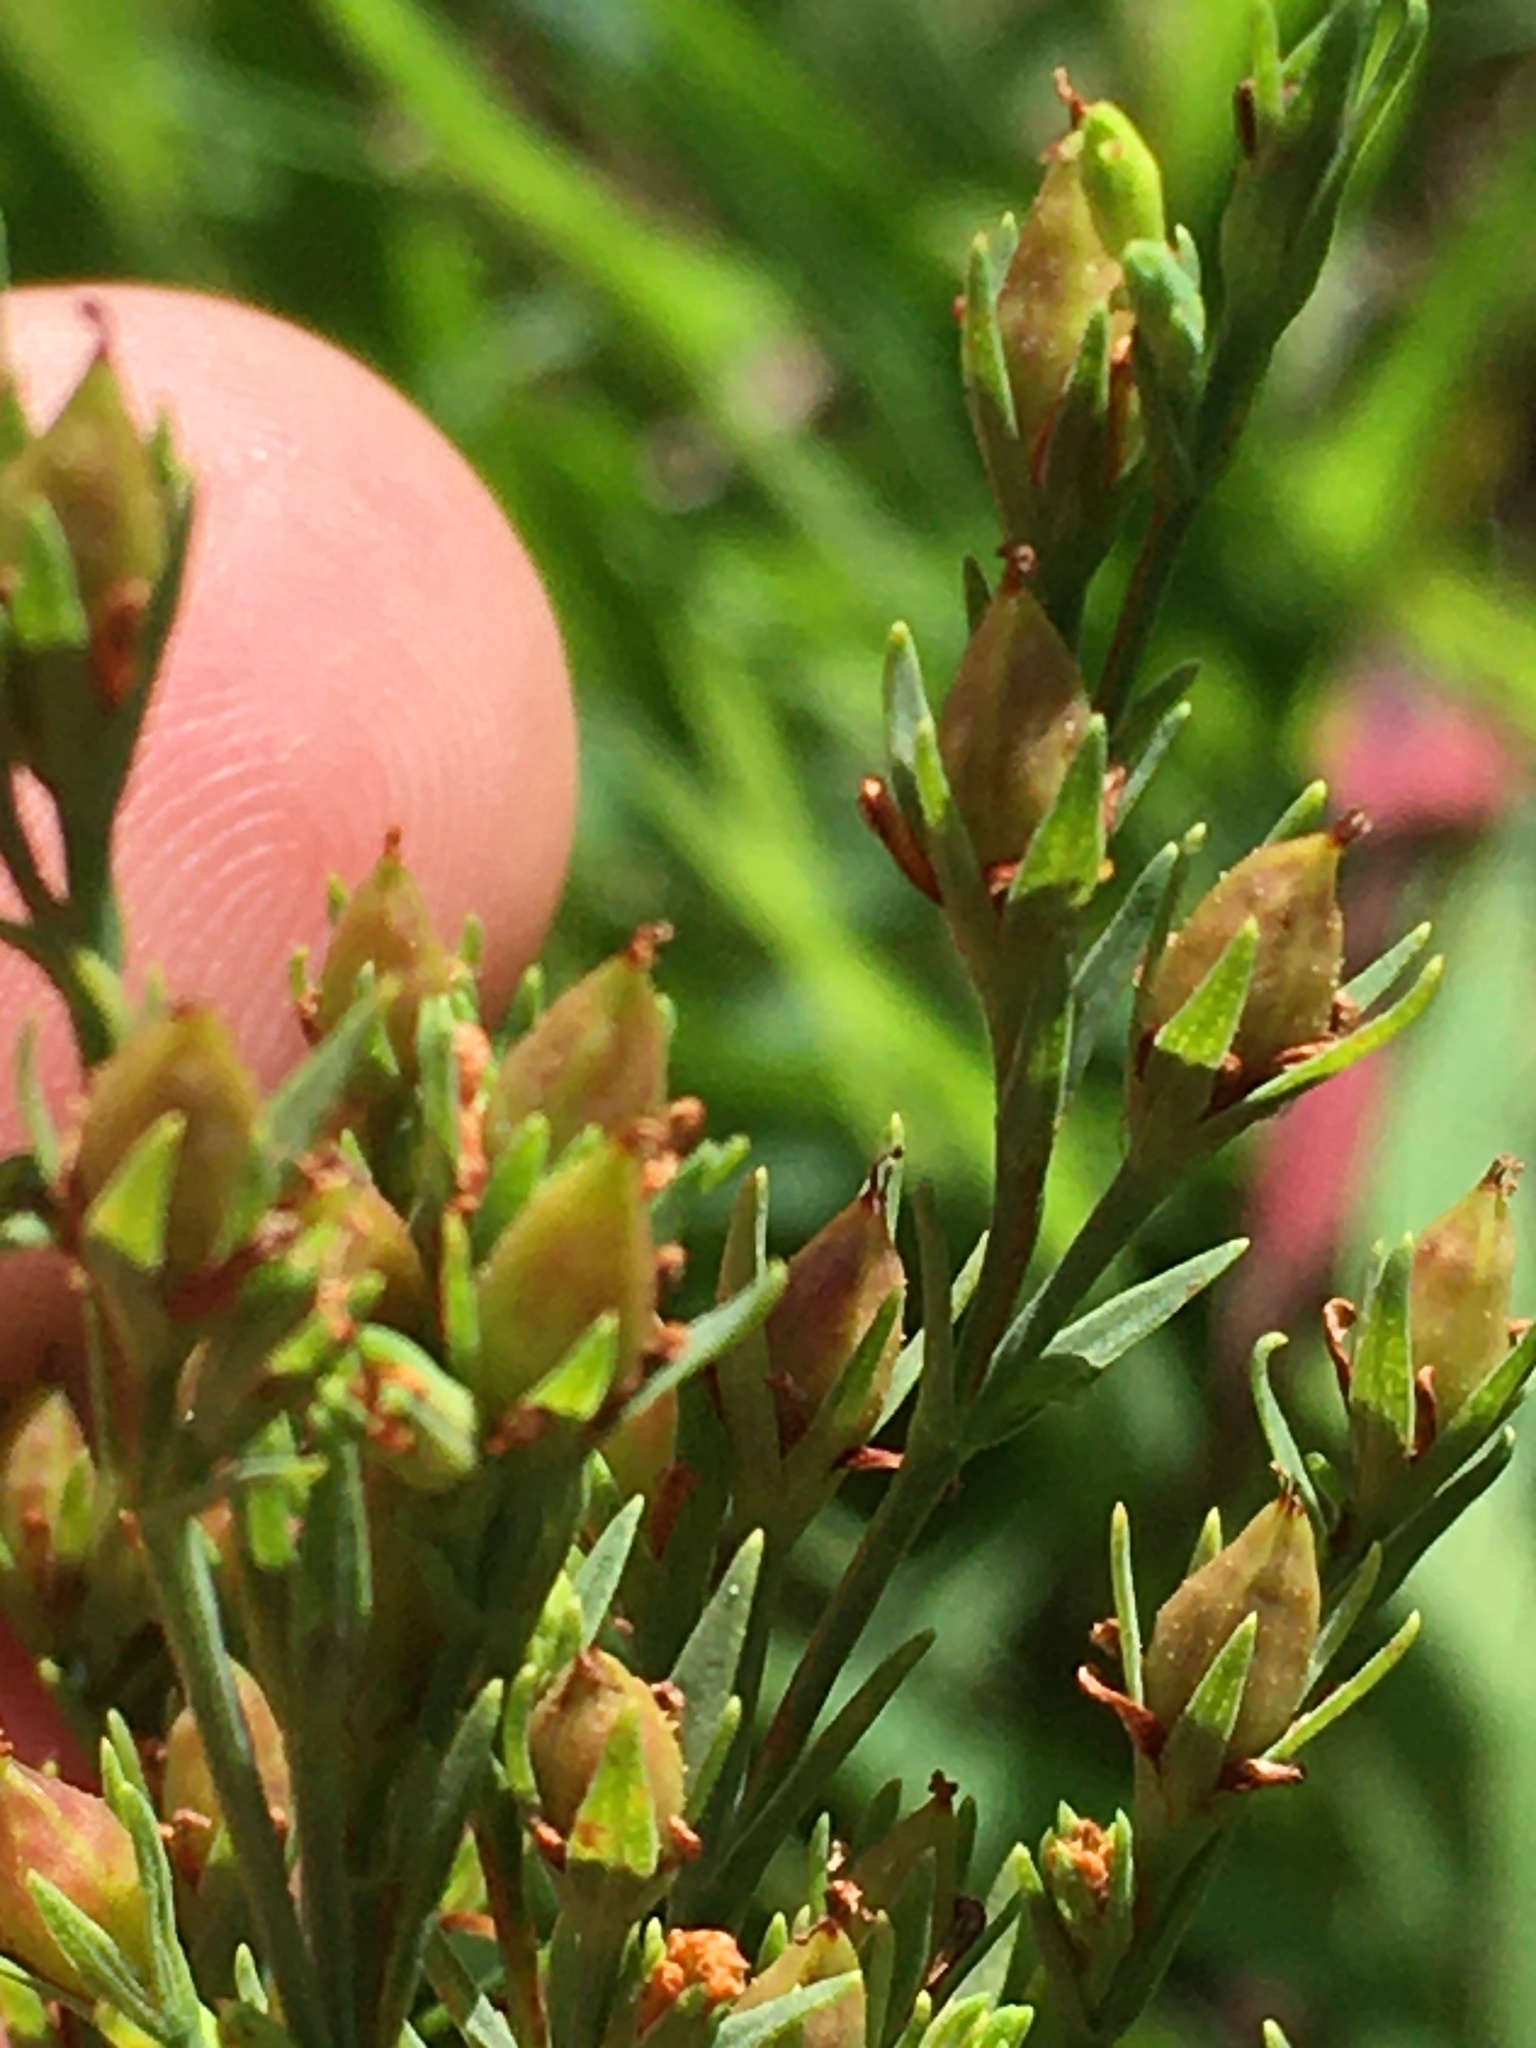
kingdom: Plantae
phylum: Tracheophyta
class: Magnoliopsida
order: Malpighiales
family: Hypericaceae
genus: Hypericum
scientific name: Hypericum drummondii
